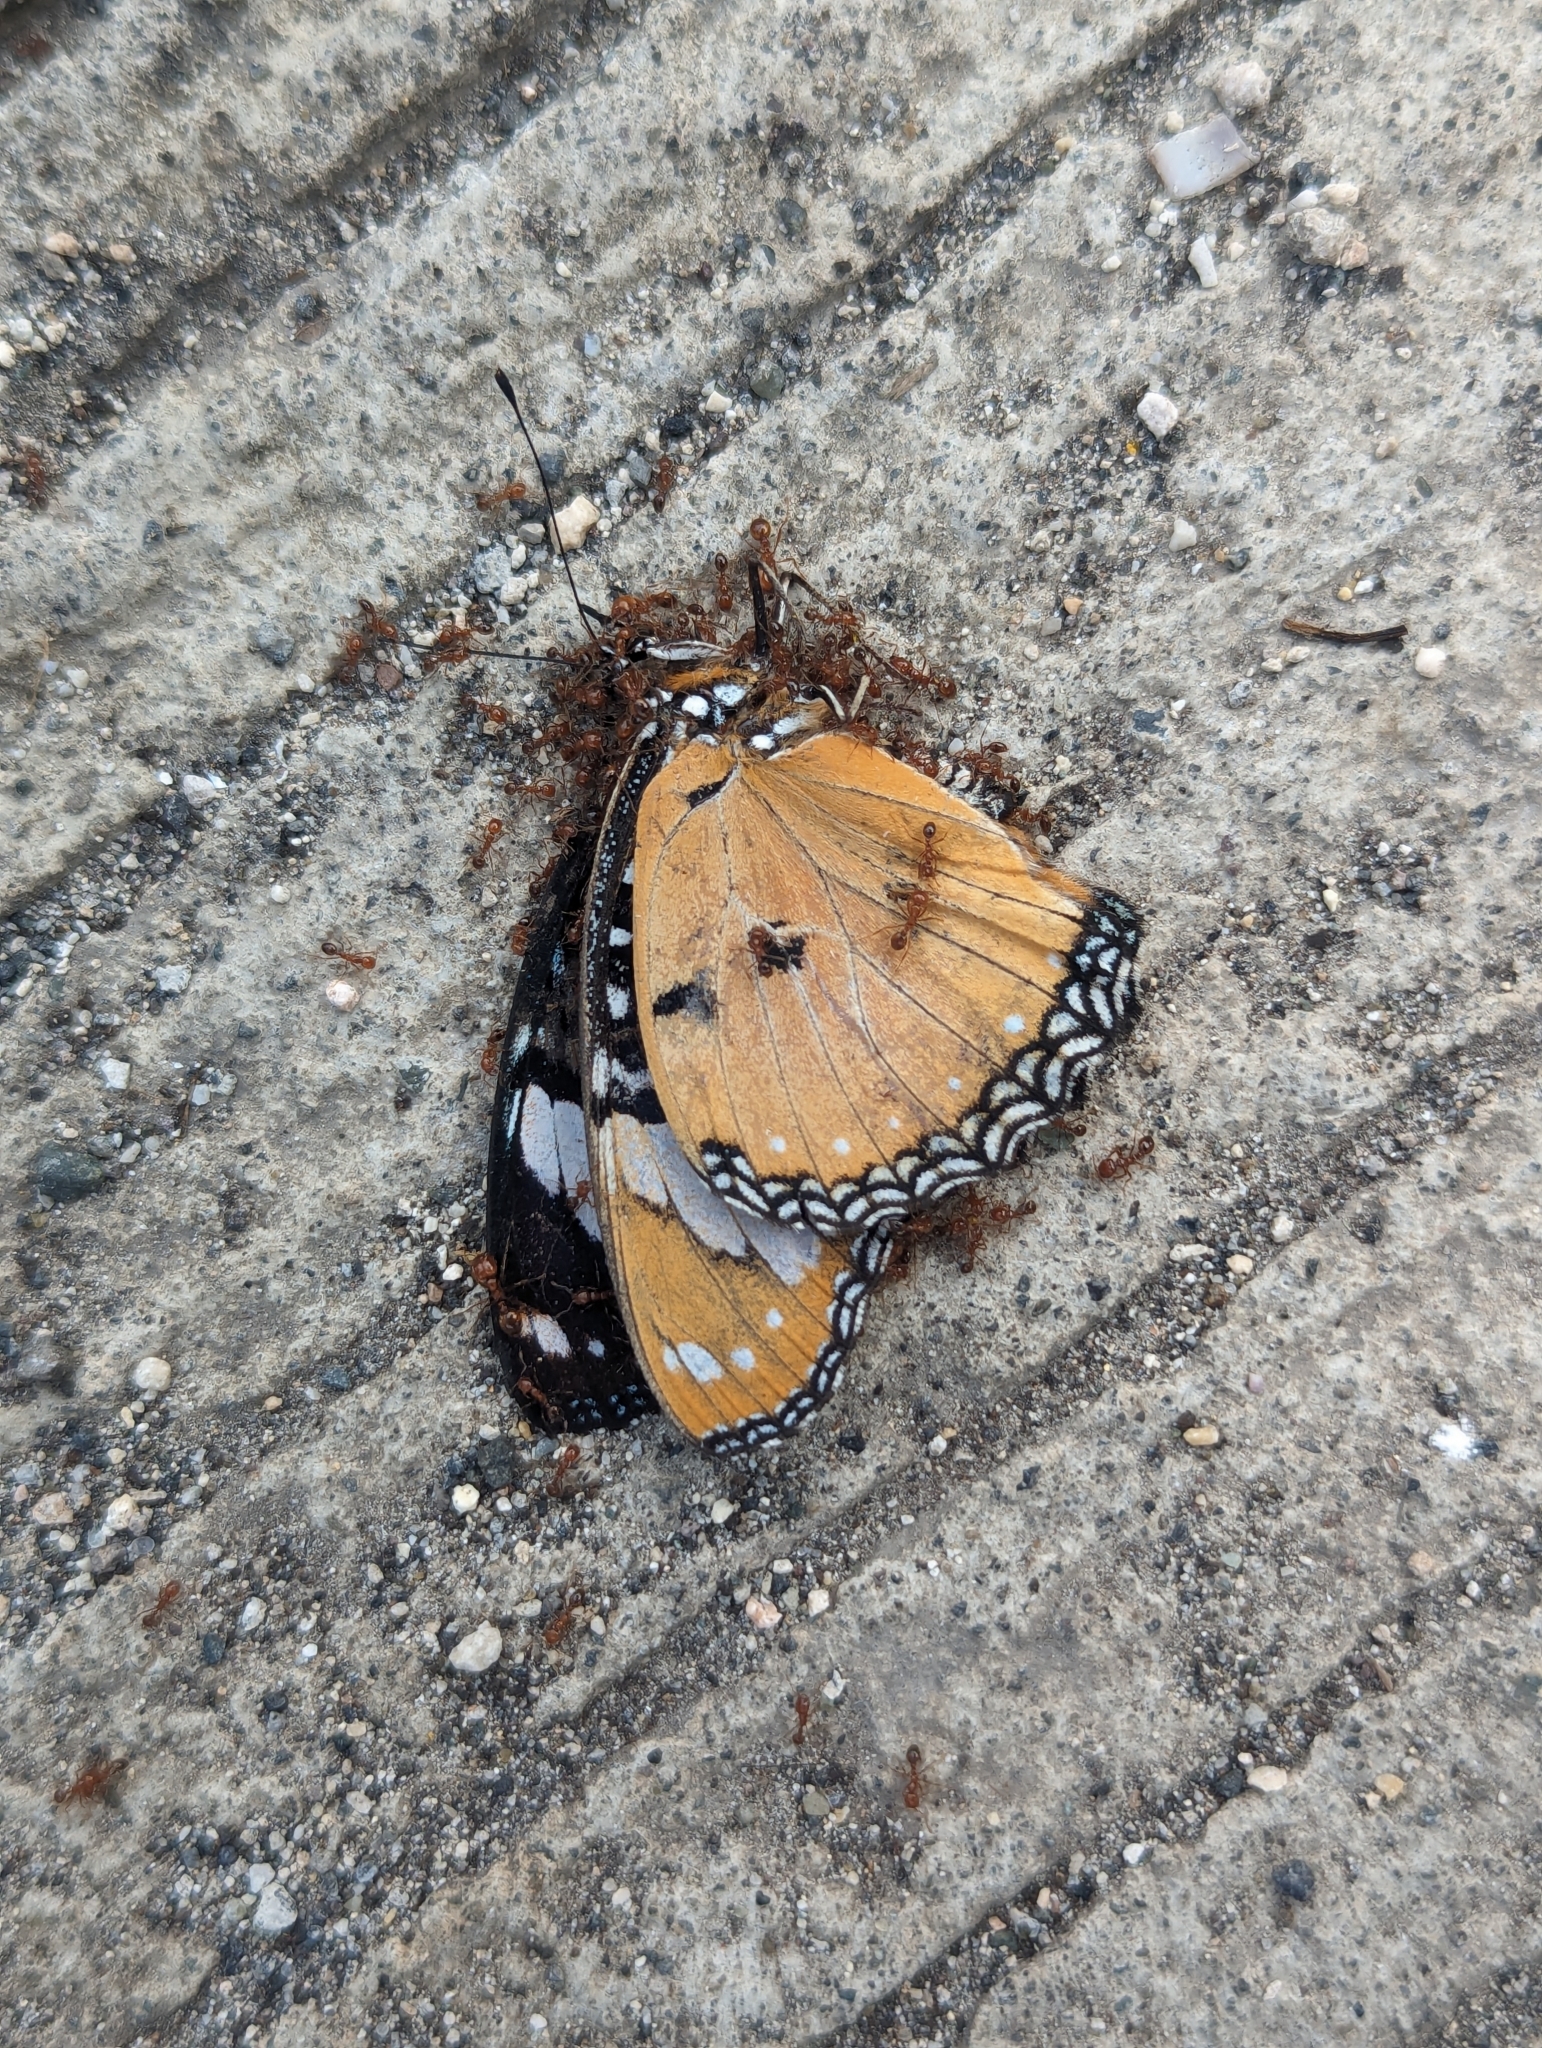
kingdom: Animalia
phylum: Arthropoda
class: Insecta
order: Lepidoptera
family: Nymphalidae
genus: Hypolimnas
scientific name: Hypolimnas misippus
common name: False plain tiger
